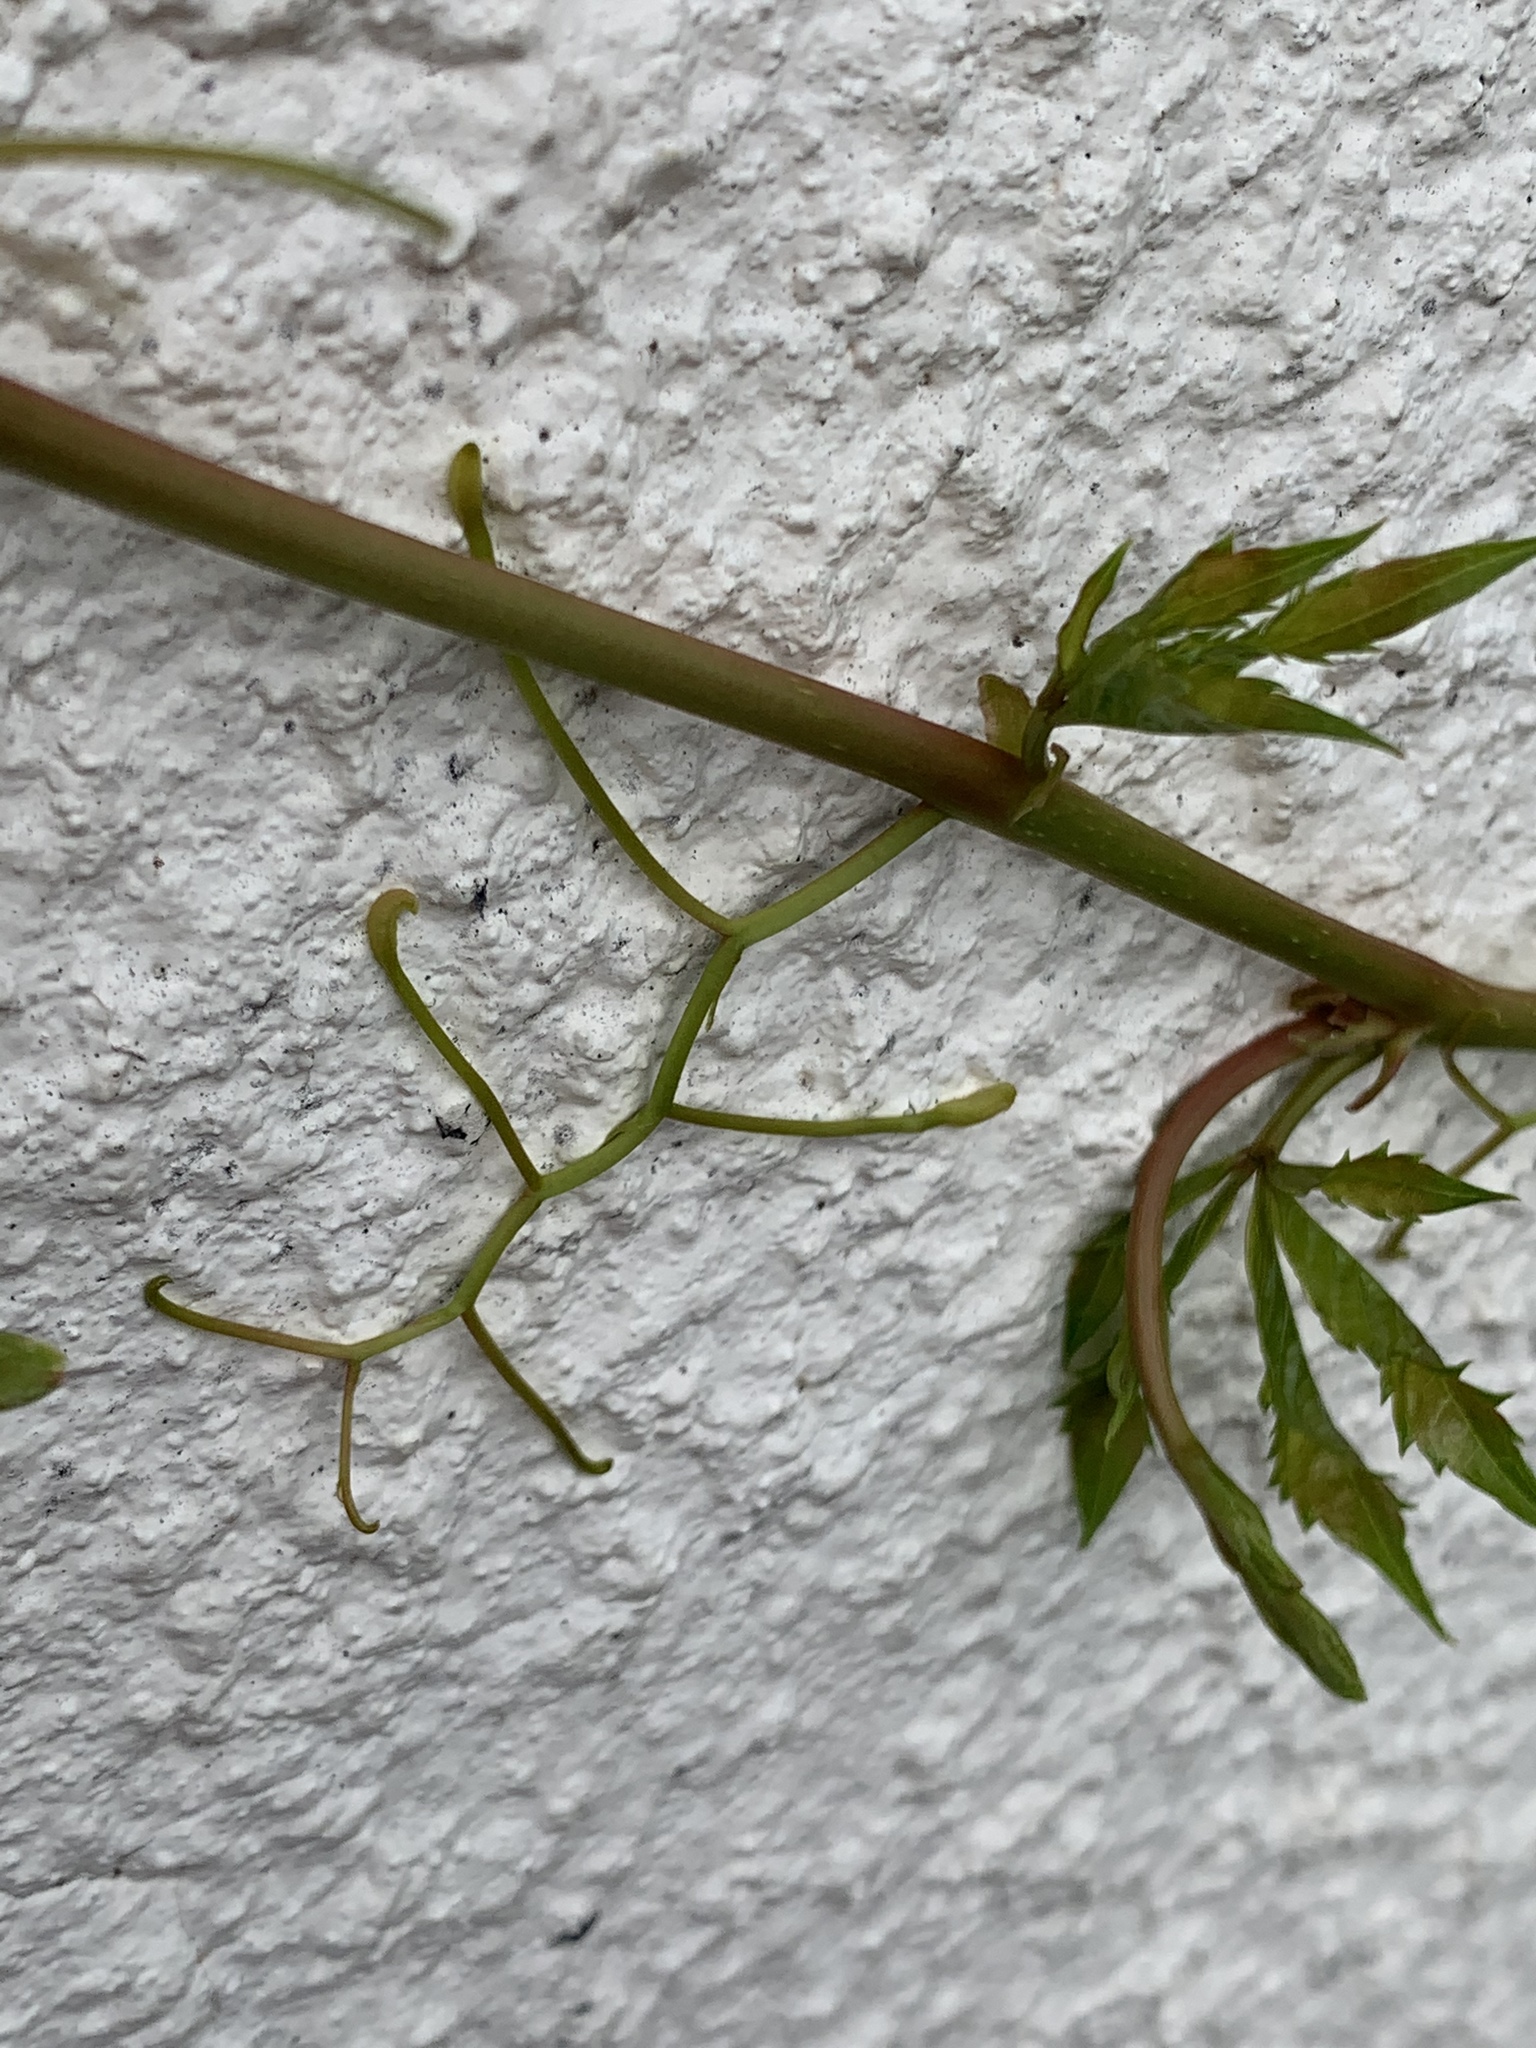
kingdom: Plantae
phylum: Tracheophyta
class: Magnoliopsida
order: Vitales
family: Vitaceae
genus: Parthenocissus
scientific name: Parthenocissus quinquefolia
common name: Virginia-creeper
